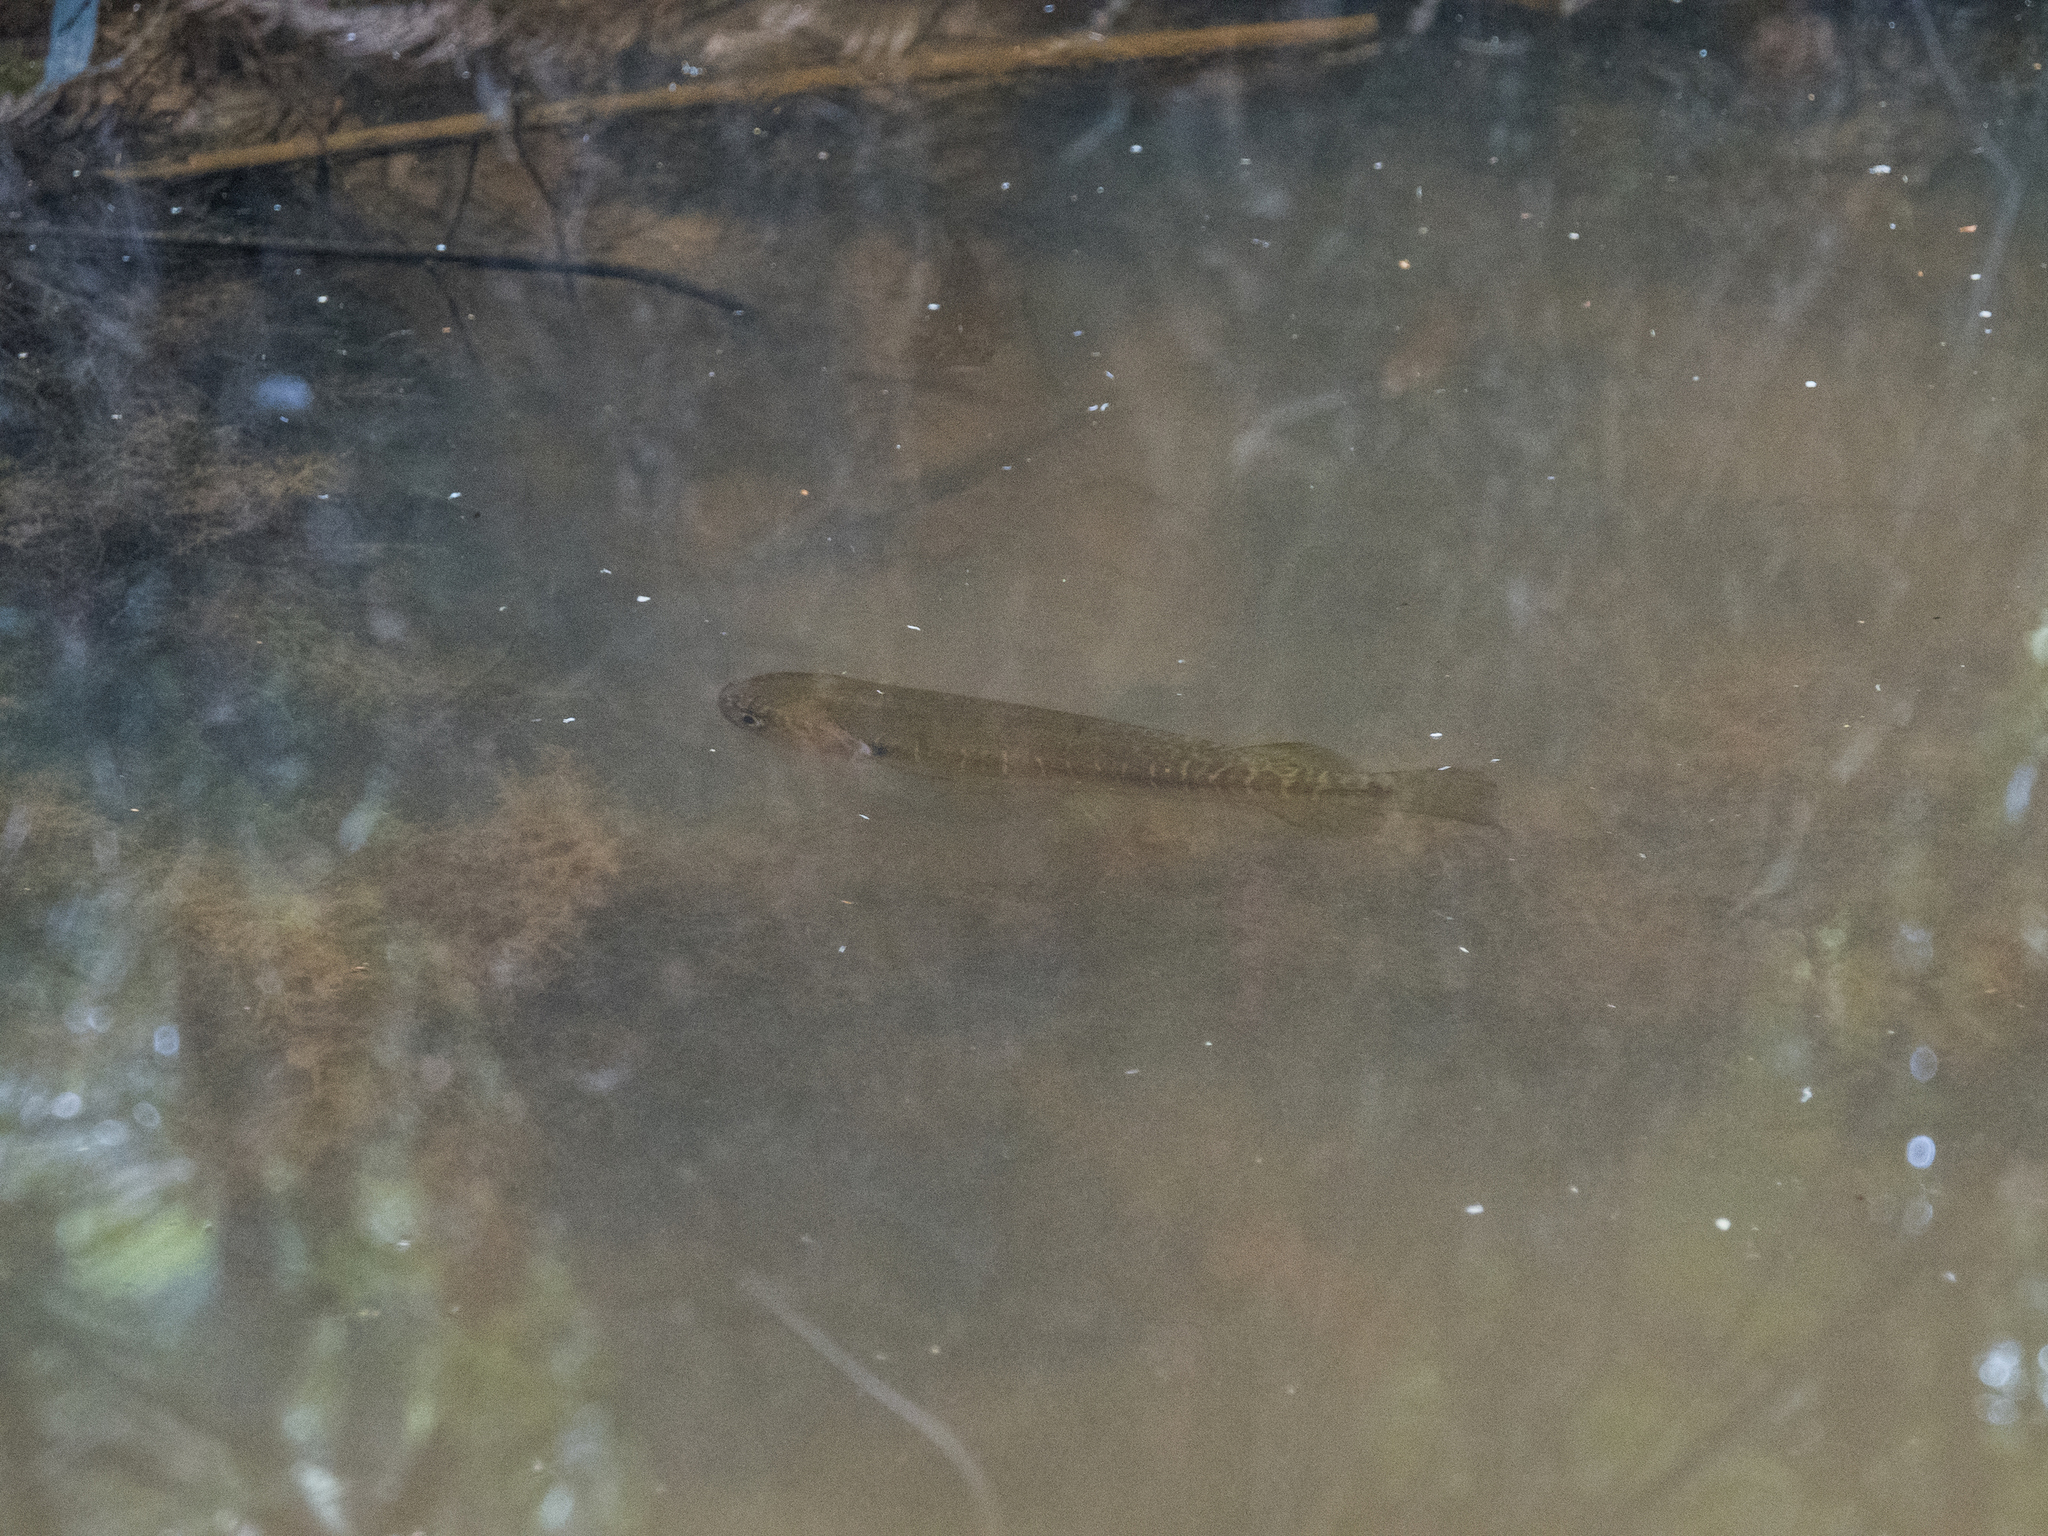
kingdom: Animalia
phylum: Chordata
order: Osmeriformes
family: Galaxiidae
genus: Galaxias
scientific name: Galaxias fasciatus
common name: Banded kokopu
